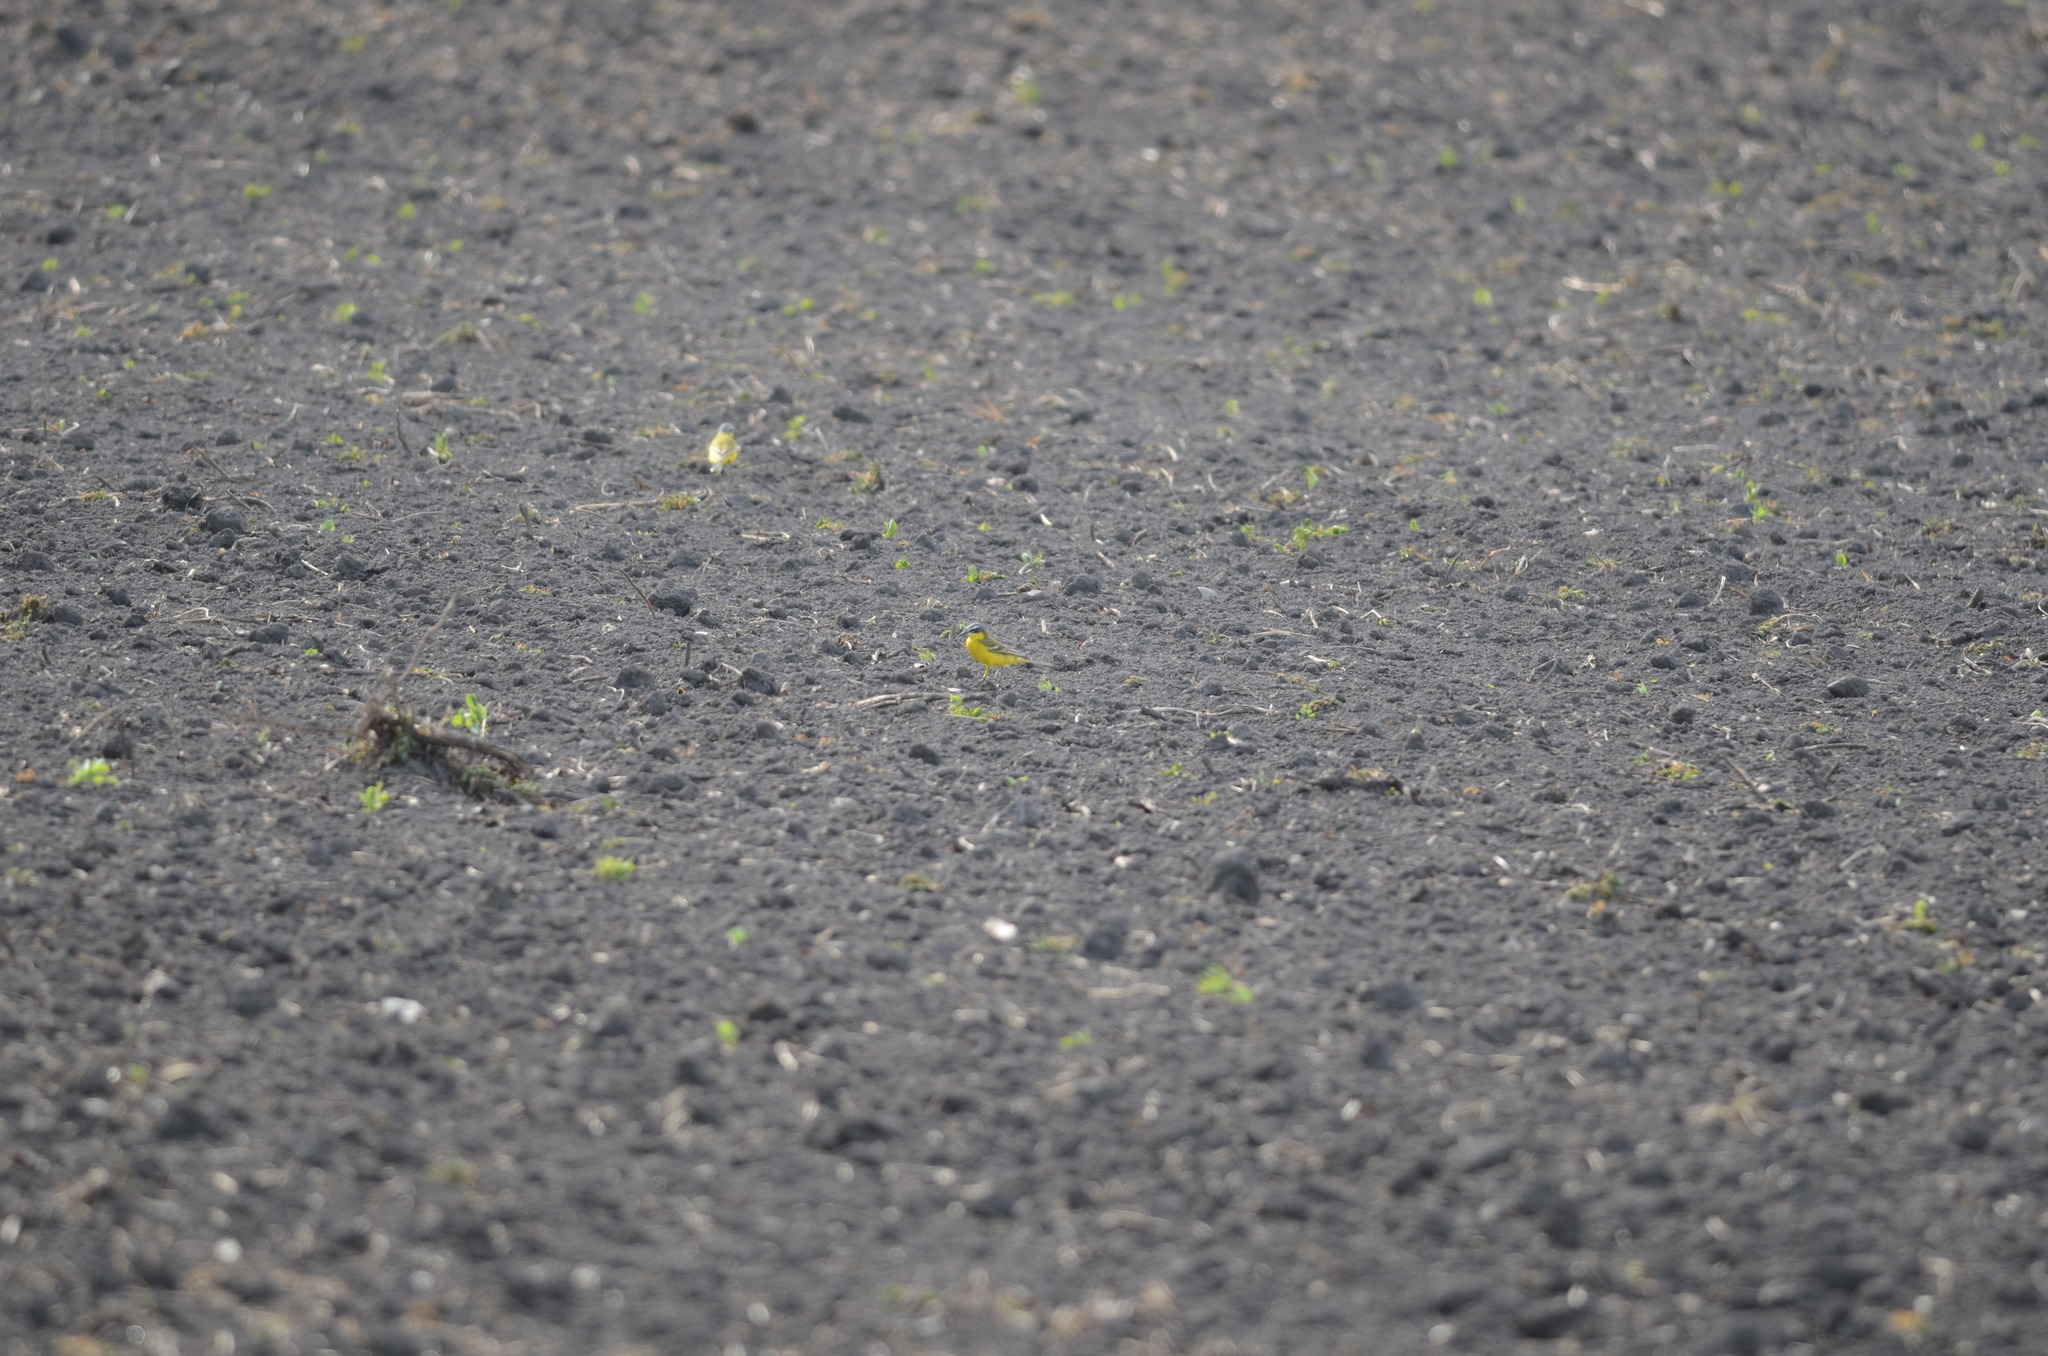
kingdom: Animalia
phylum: Chordata
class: Aves
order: Passeriformes
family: Motacillidae
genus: Motacilla
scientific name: Motacilla flava
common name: Western yellow wagtail
